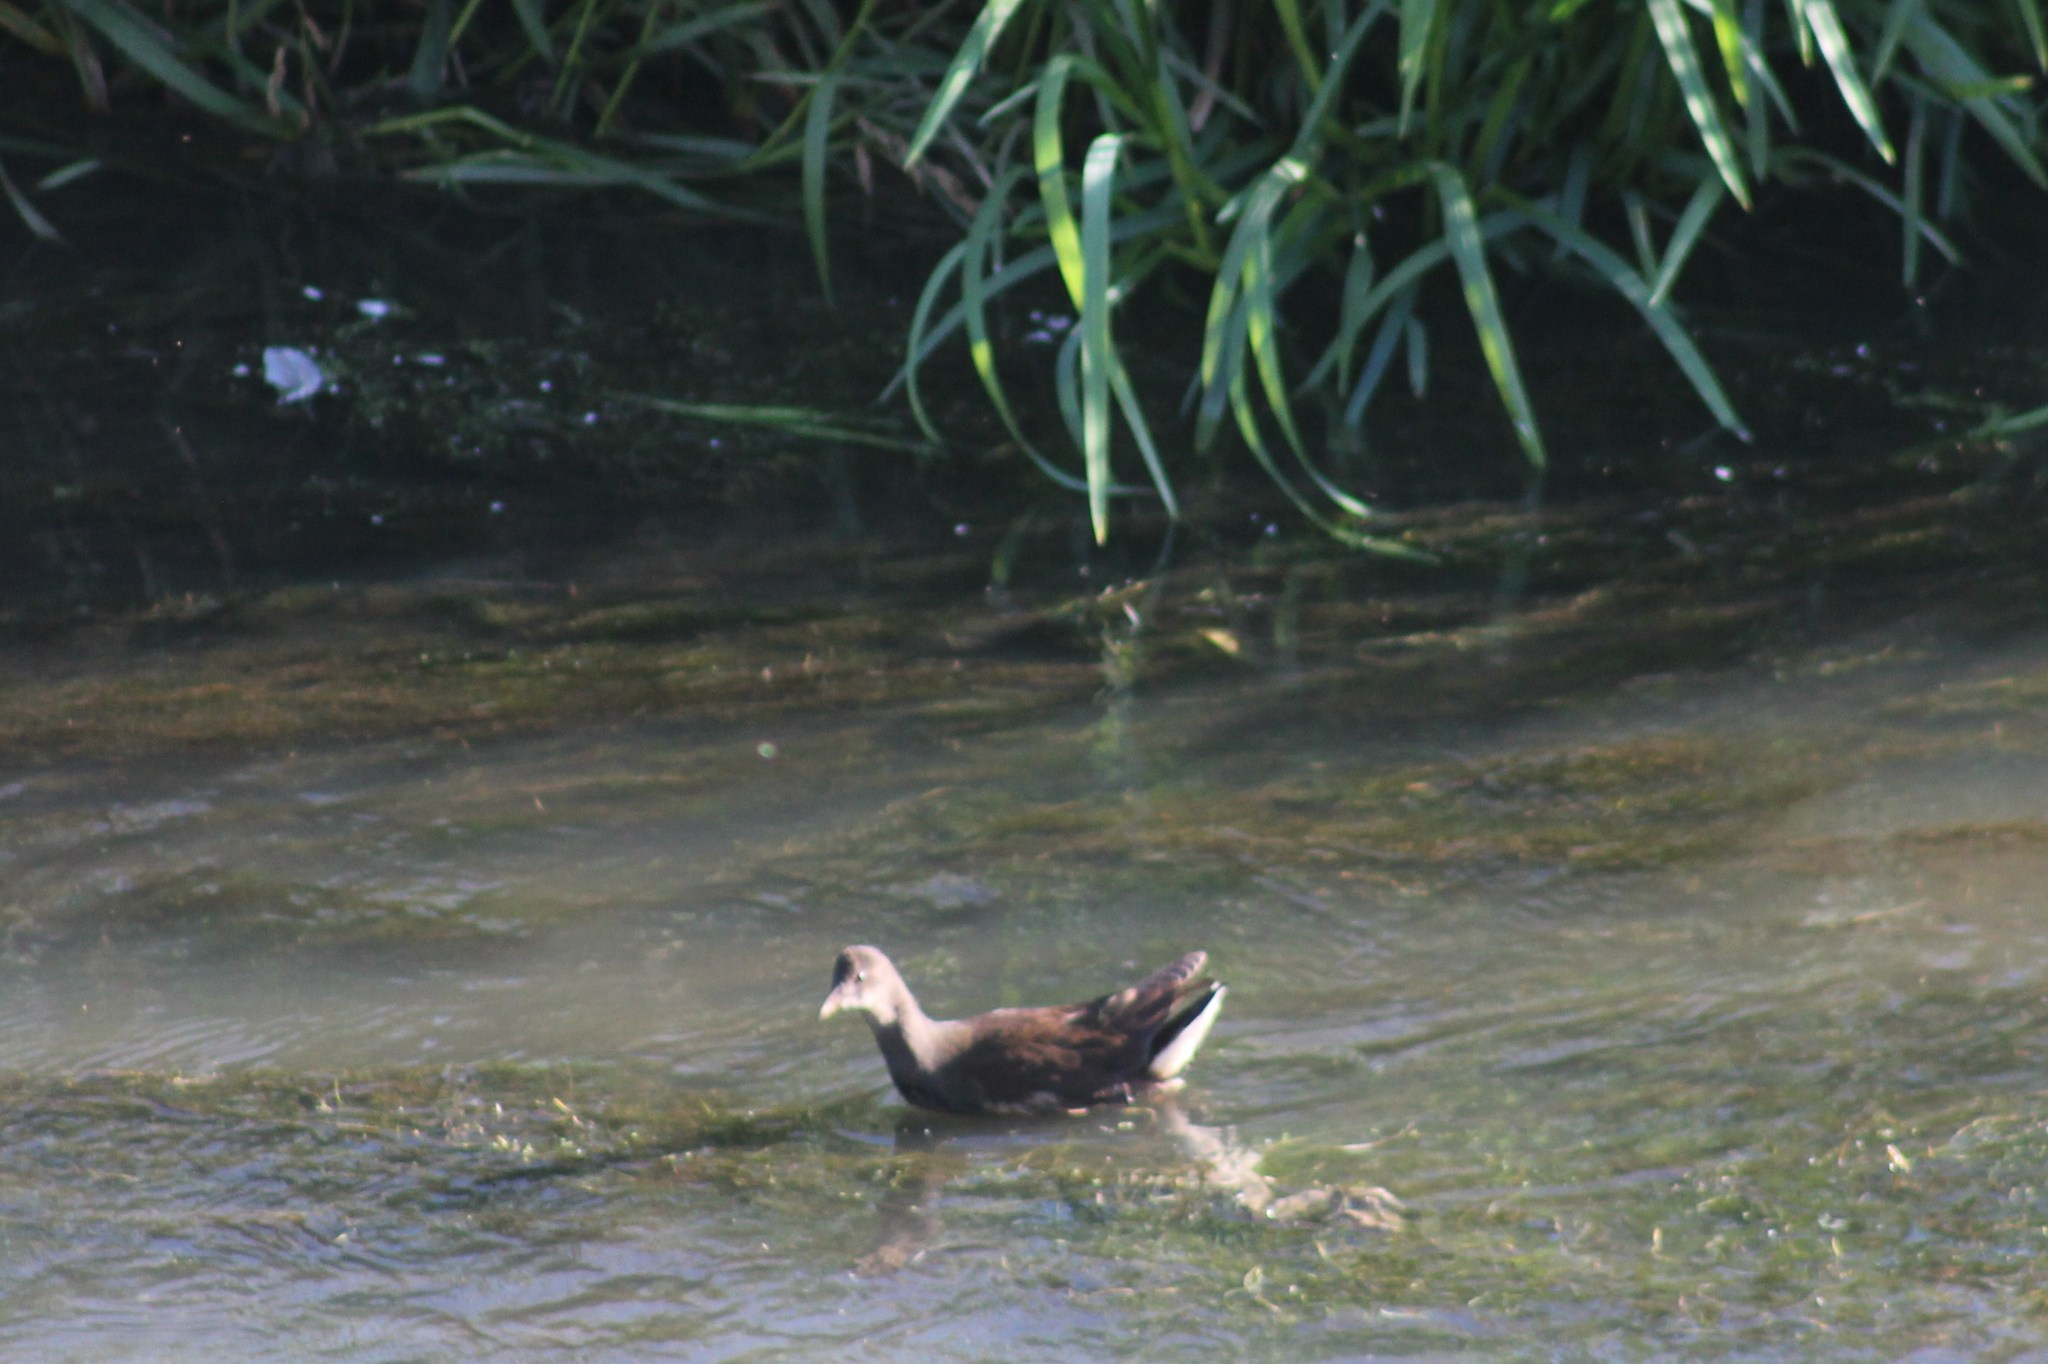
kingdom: Animalia
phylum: Chordata
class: Aves
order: Gruiformes
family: Rallidae
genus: Gallinula
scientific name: Gallinula chloropus
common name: Common moorhen
